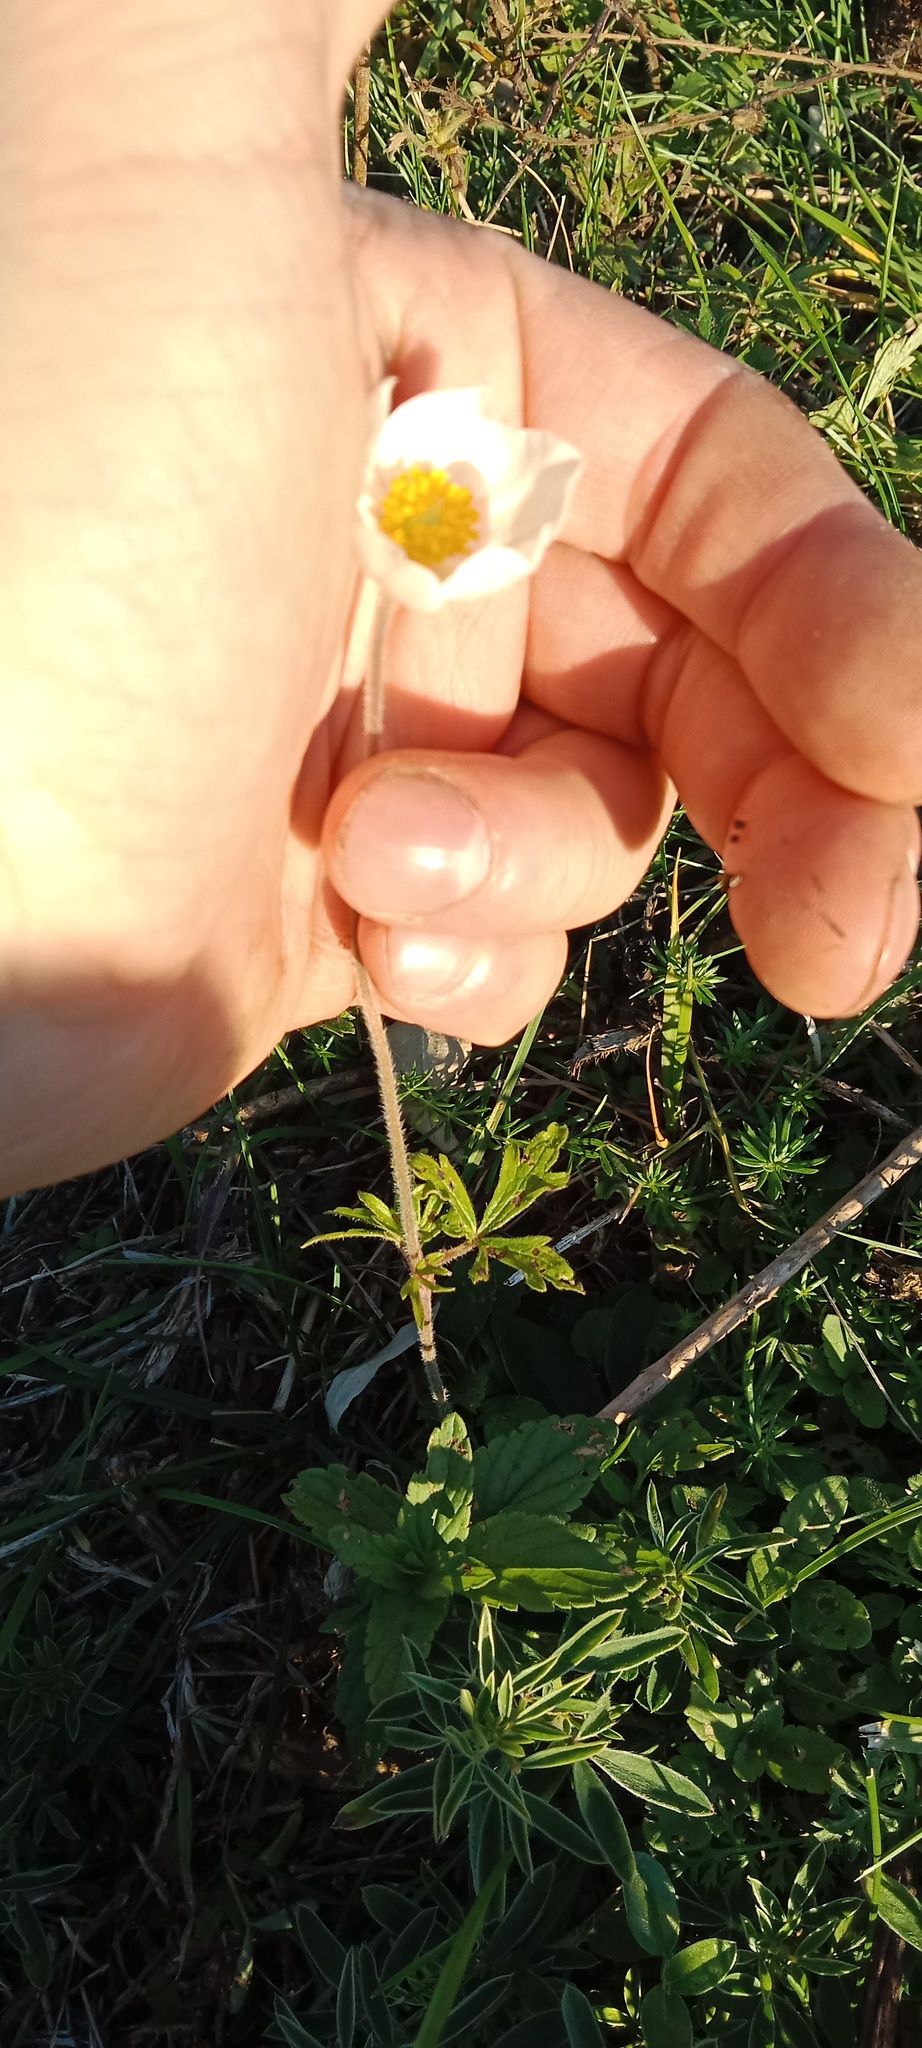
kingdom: Plantae
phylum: Tracheophyta
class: Magnoliopsida
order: Ranunculales
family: Ranunculaceae
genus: Anemone
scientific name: Anemone sylvestris
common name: Snowdrop anemone
